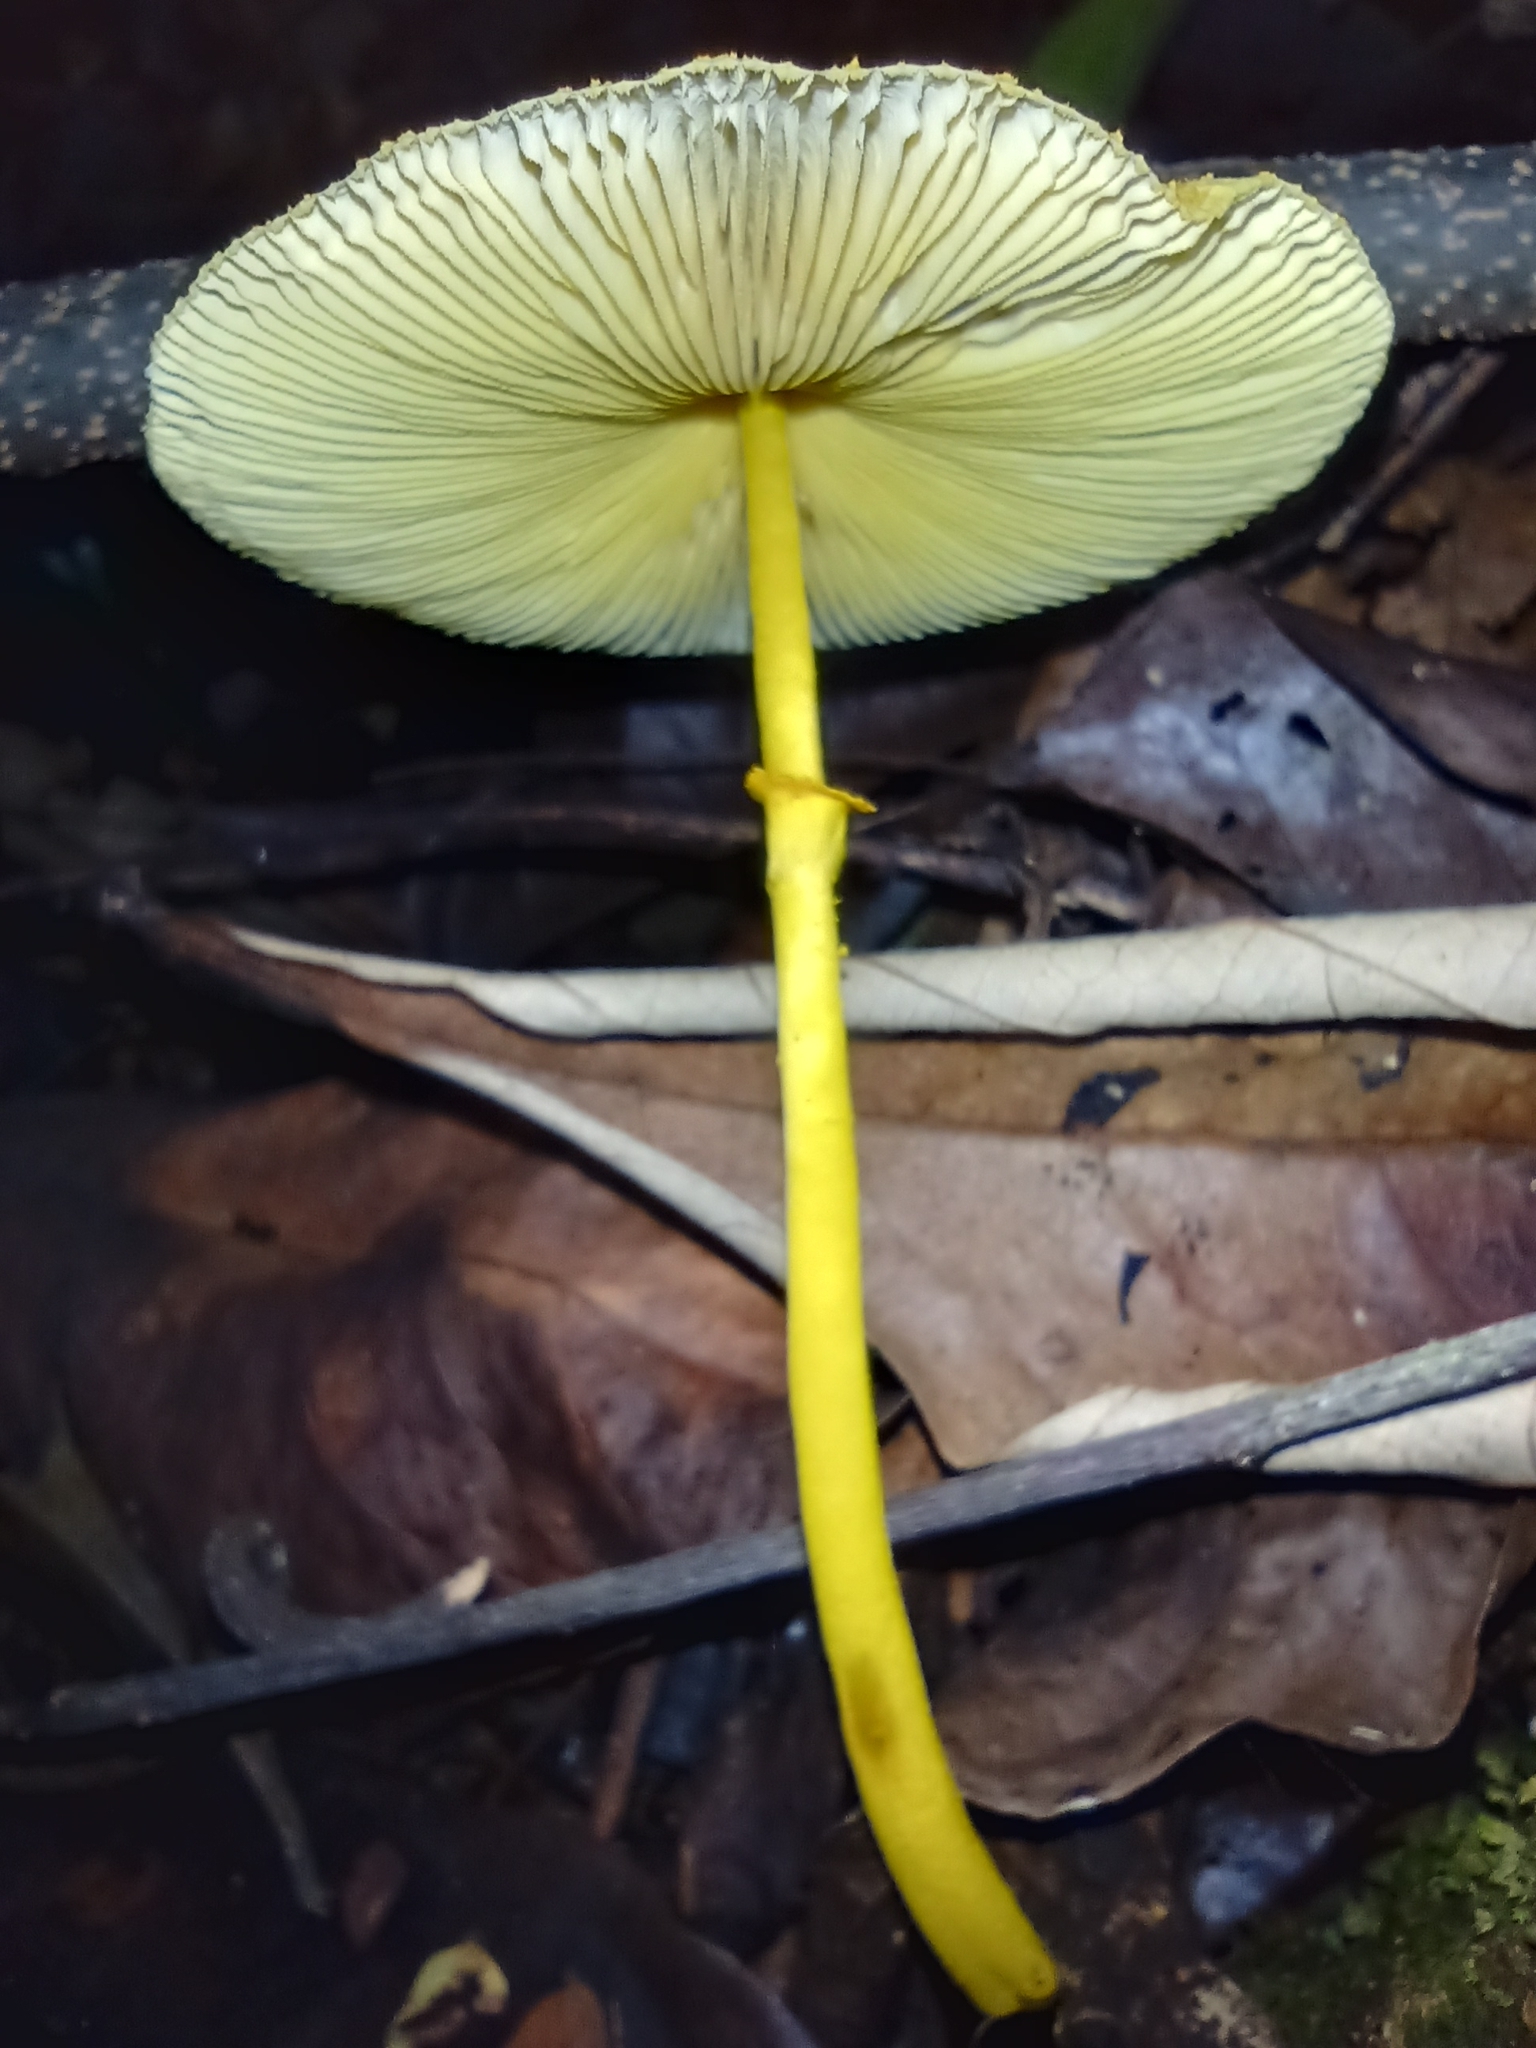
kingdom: Fungi
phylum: Basidiomycota
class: Agaricomycetes
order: Agaricales
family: Agaricaceae
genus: Leucocoprinus
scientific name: Leucocoprinus brunneoluteus
